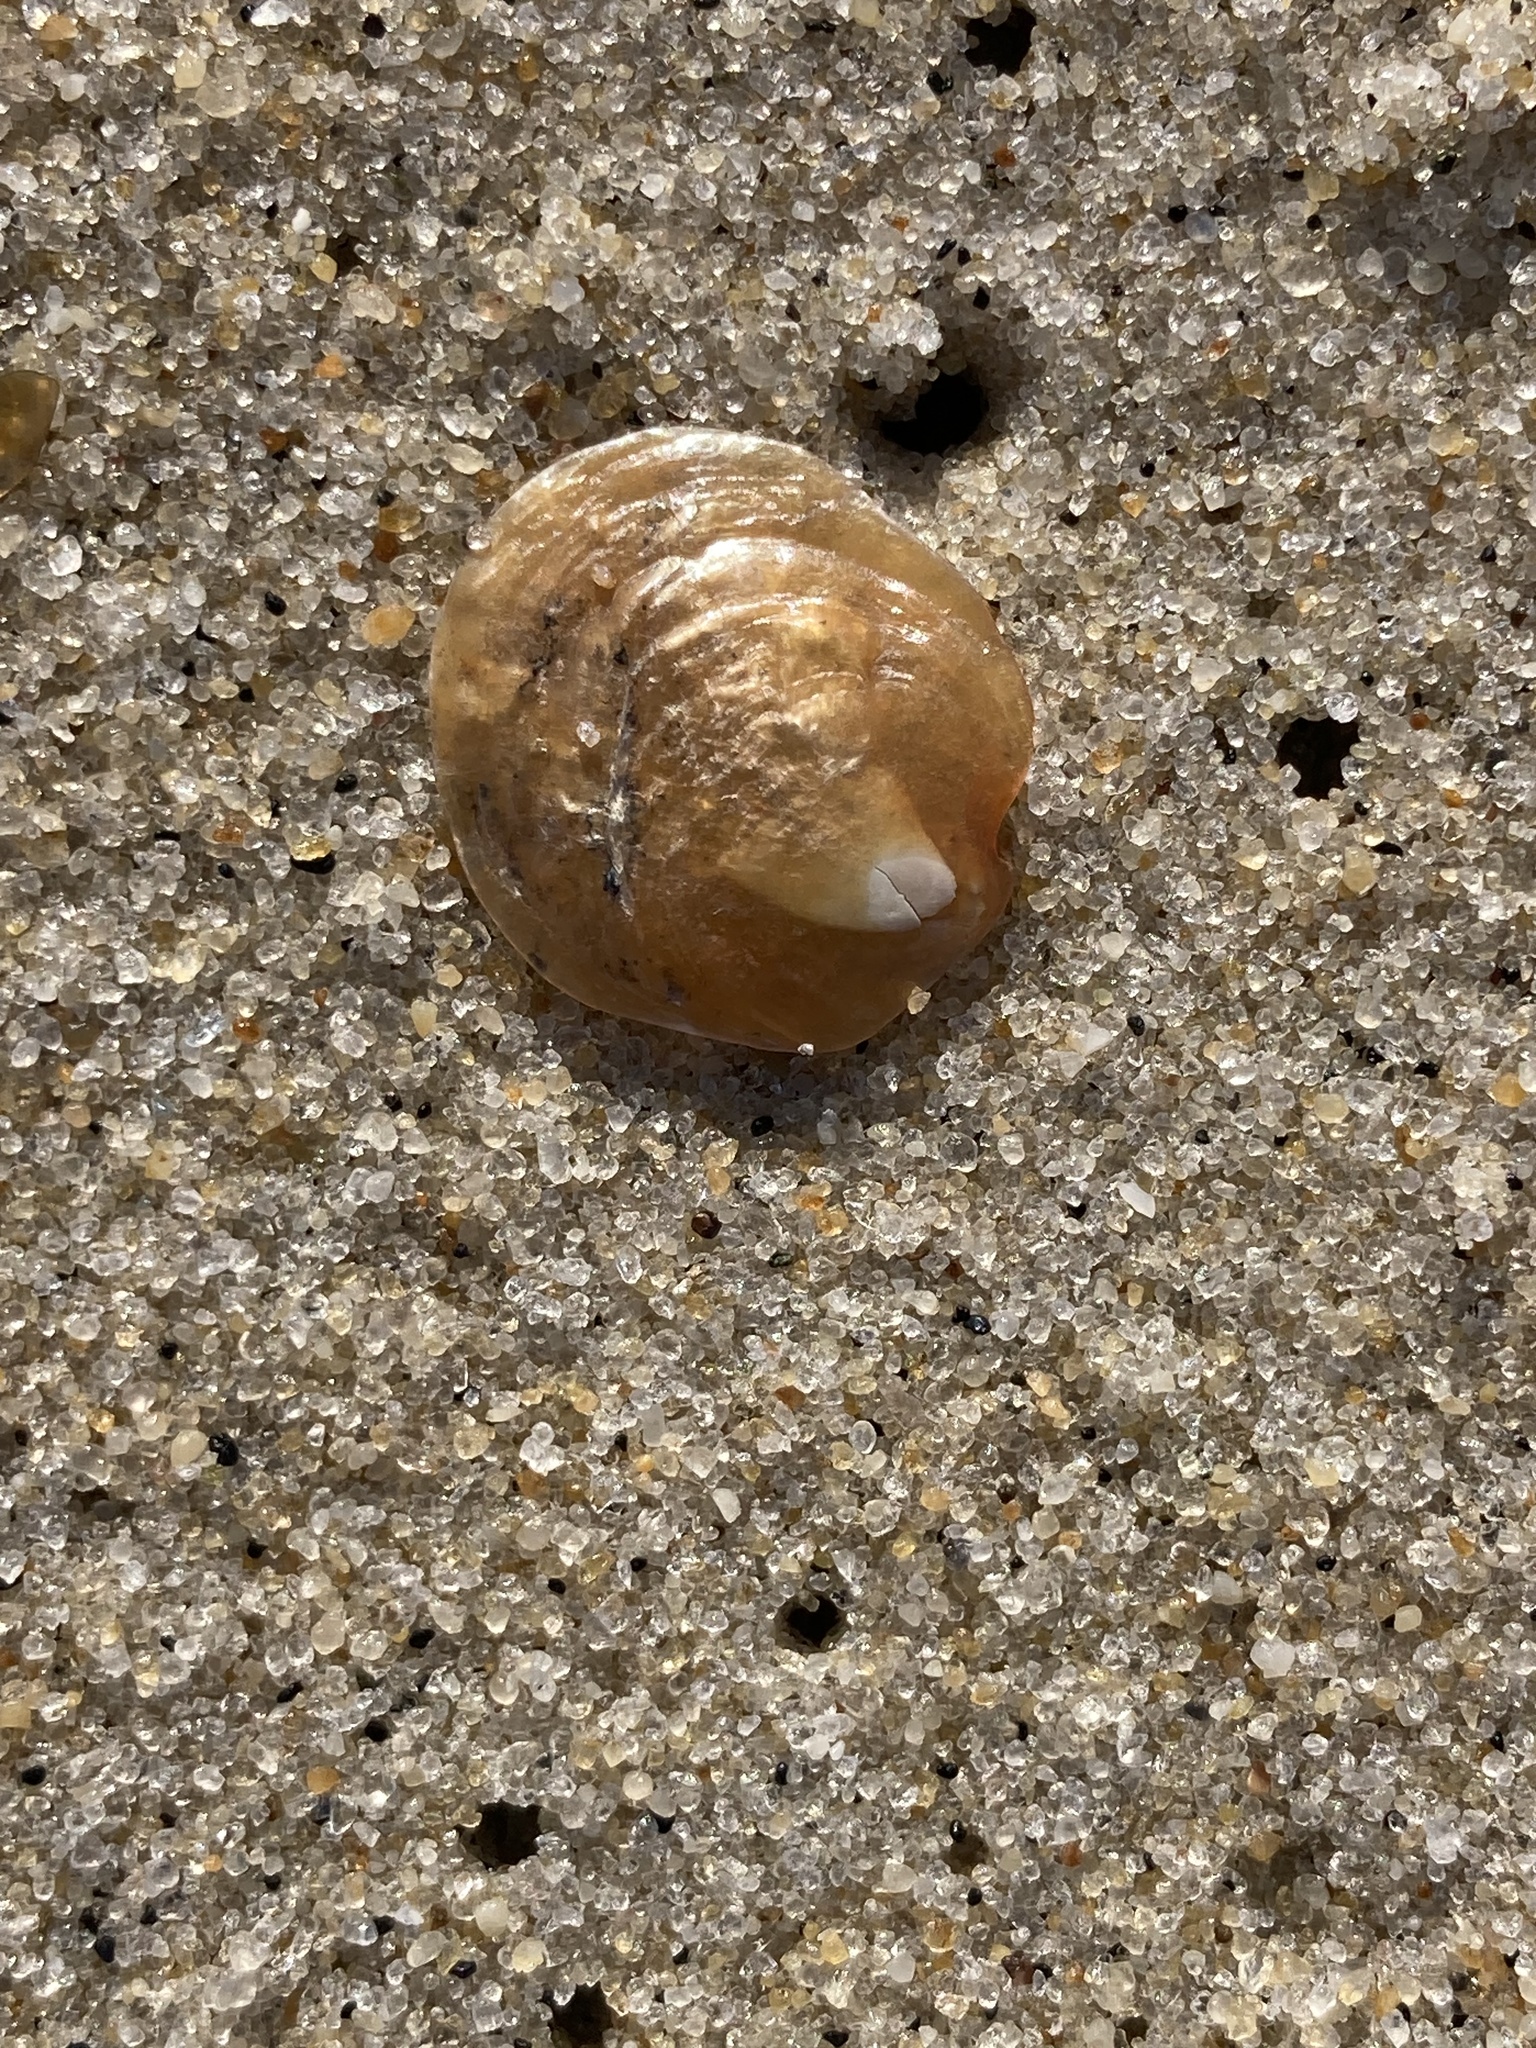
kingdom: Animalia
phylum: Mollusca
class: Bivalvia
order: Pectinida
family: Anomiidae
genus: Anomia
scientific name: Anomia simplex
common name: Common jingle shell
